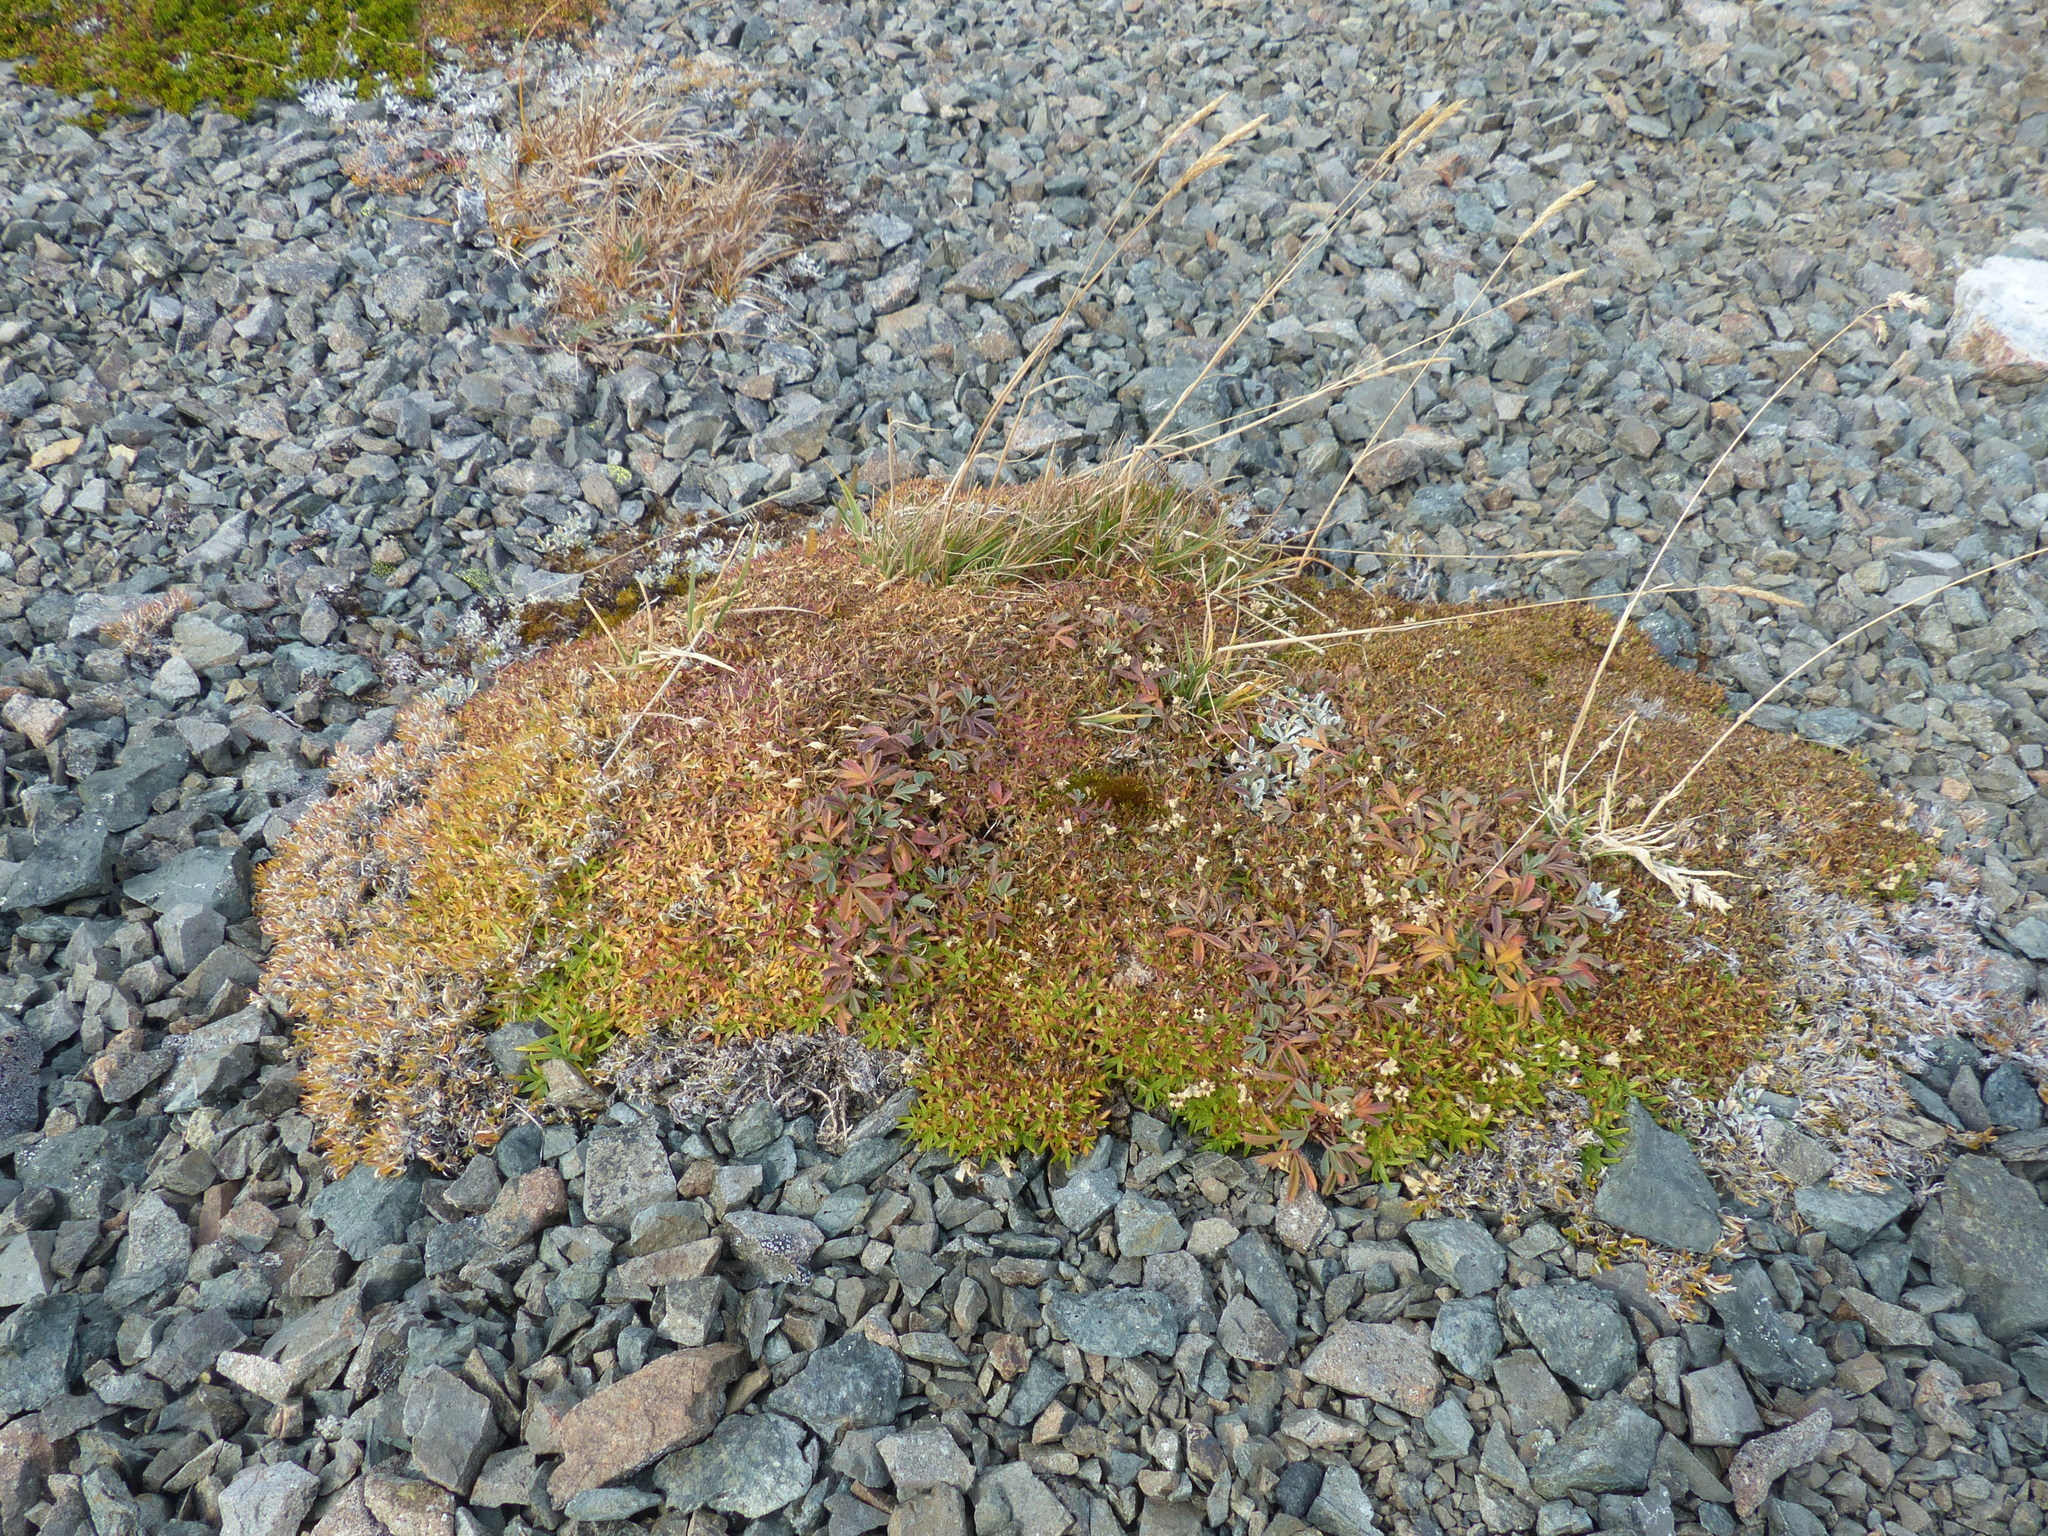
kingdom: Plantae
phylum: Tracheophyta
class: Magnoliopsida
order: Caryophyllales
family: Caryophyllaceae
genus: Silene
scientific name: Silene acaulis
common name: Moss campion
